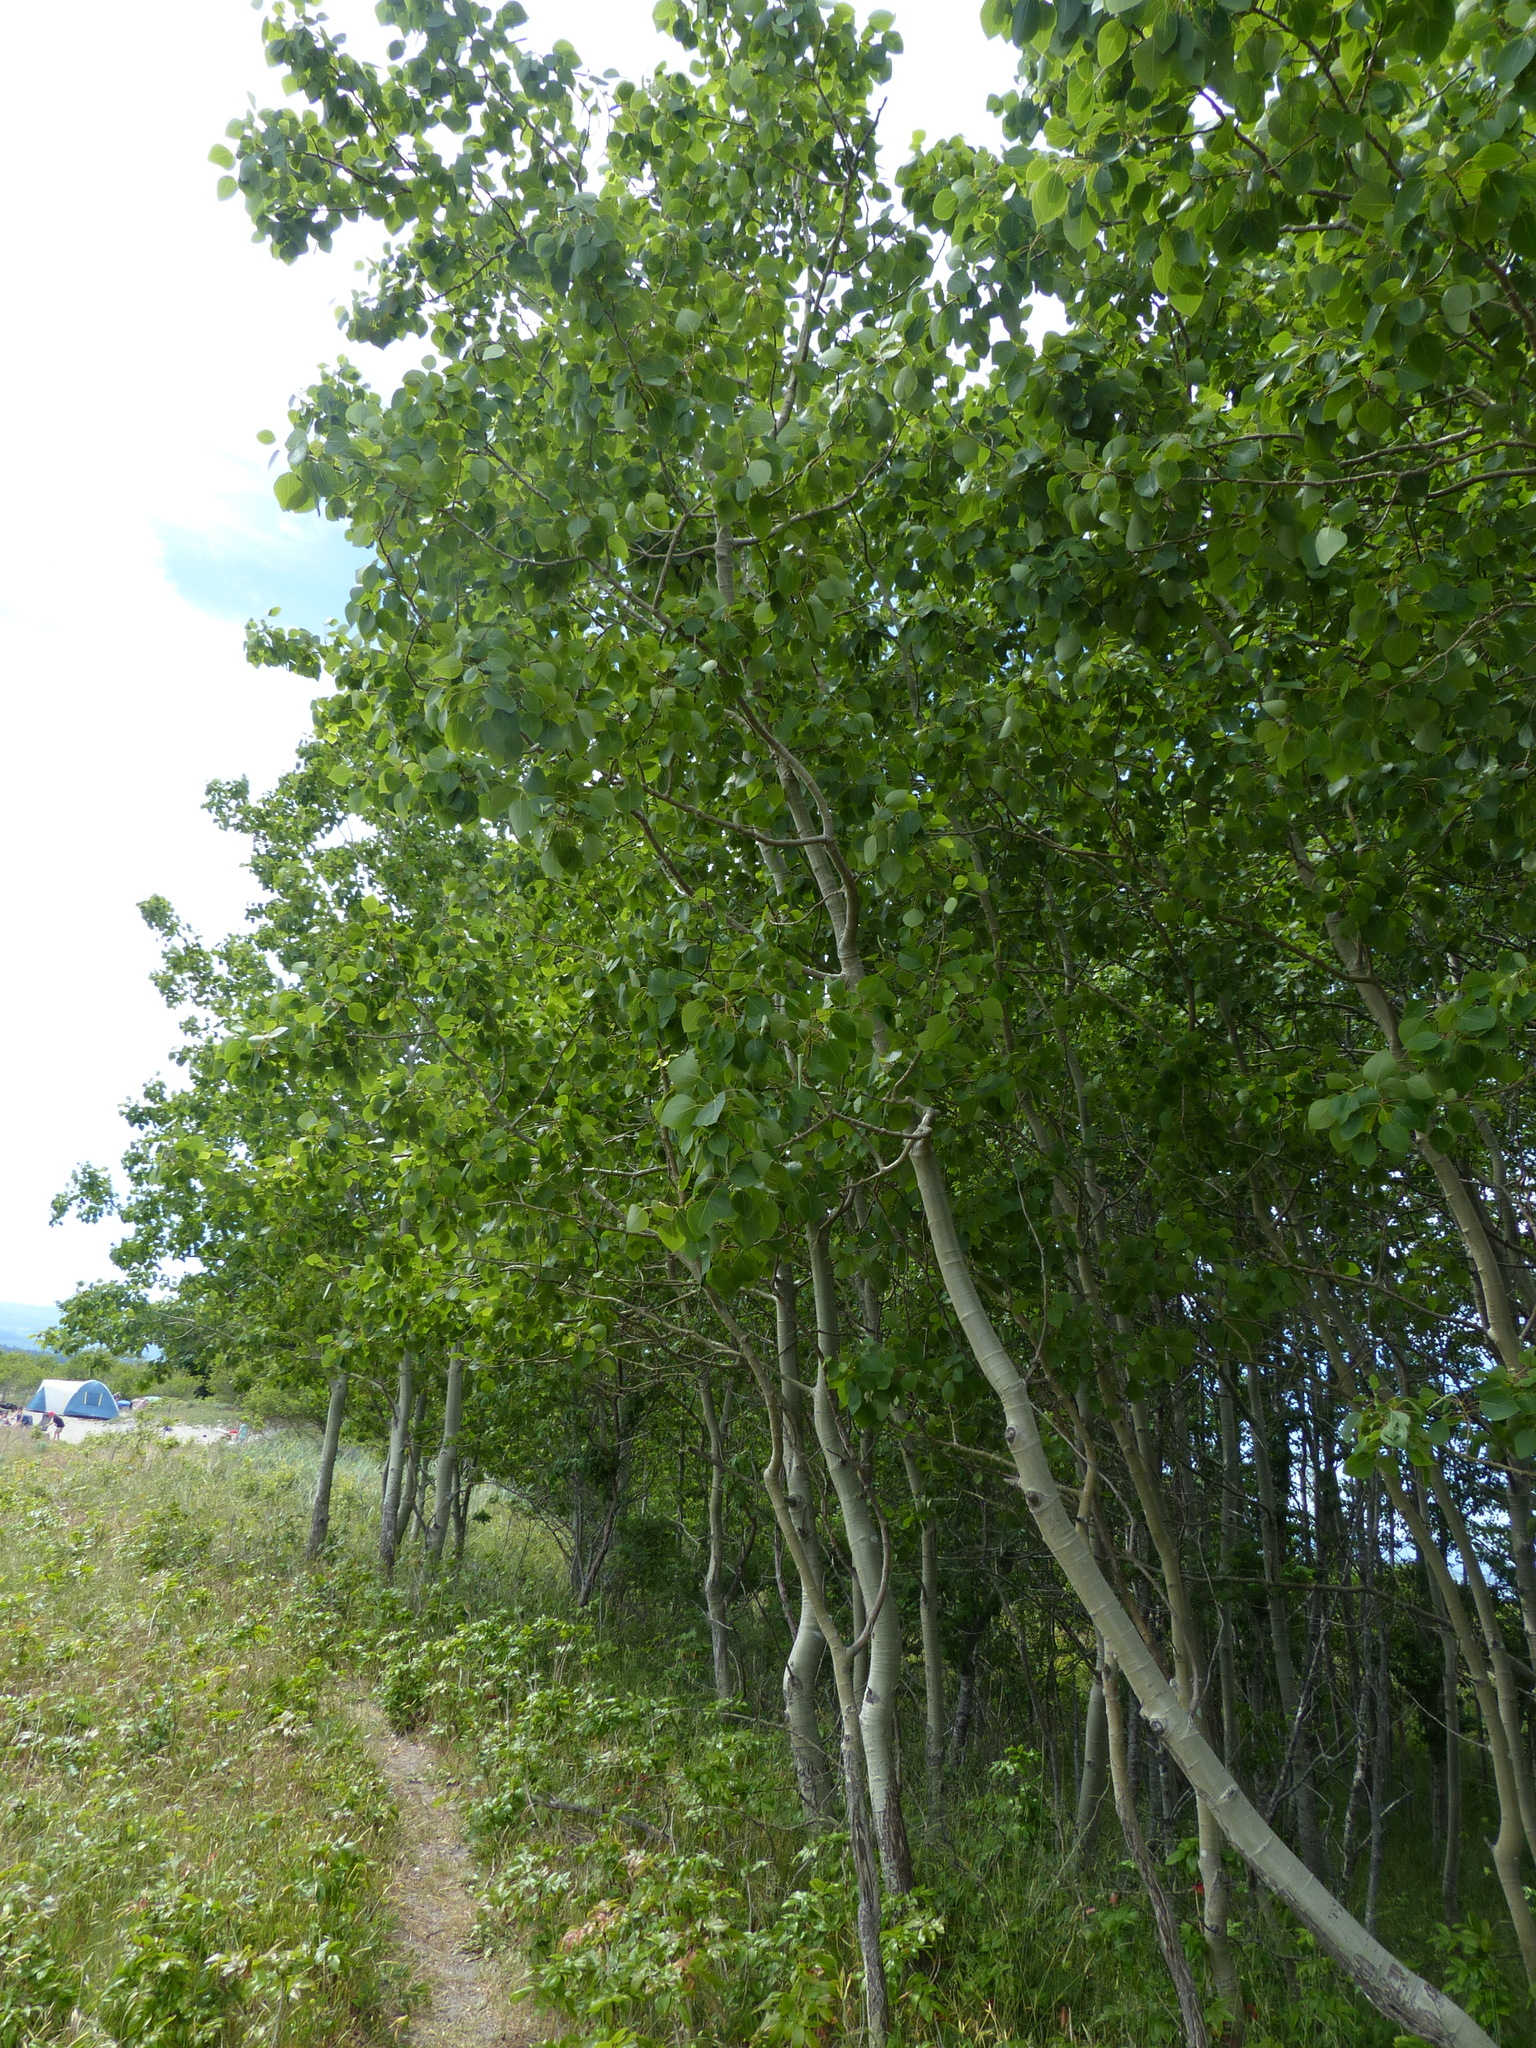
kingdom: Plantae
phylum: Tracheophyta
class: Magnoliopsida
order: Malpighiales
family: Salicaceae
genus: Populus
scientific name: Populus tremuloides
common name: Quaking aspen
